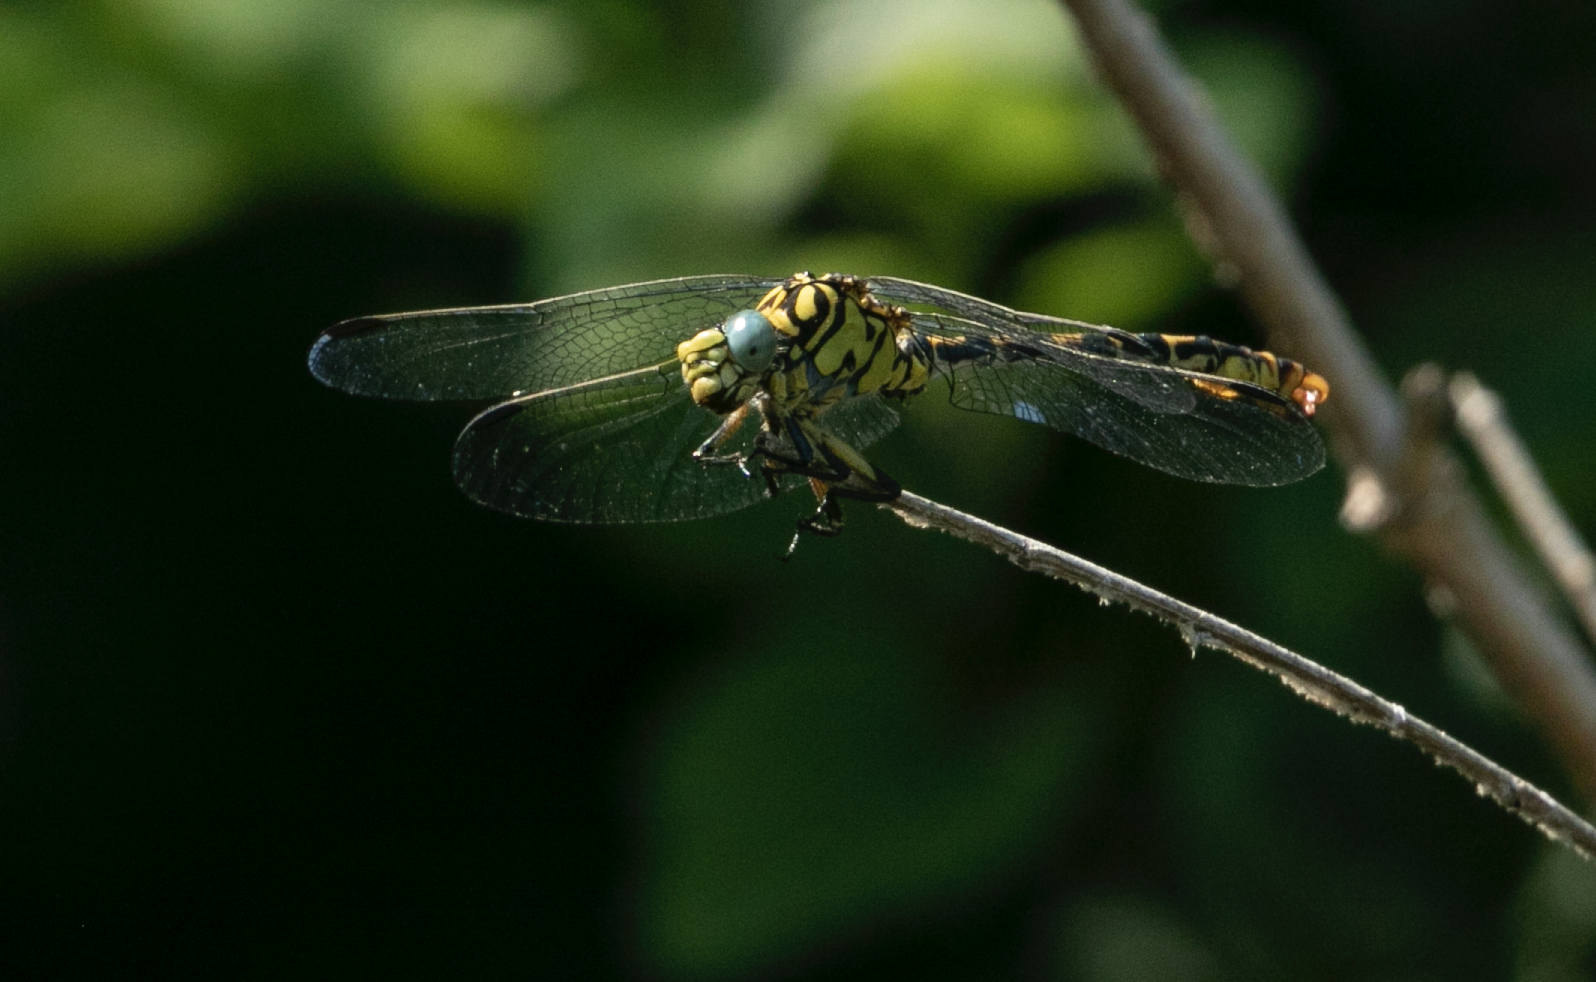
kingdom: Animalia
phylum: Arthropoda
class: Insecta
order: Odonata
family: Gomphidae
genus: Onychogomphus
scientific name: Onychogomphus forcipatus
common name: Small pincertail
